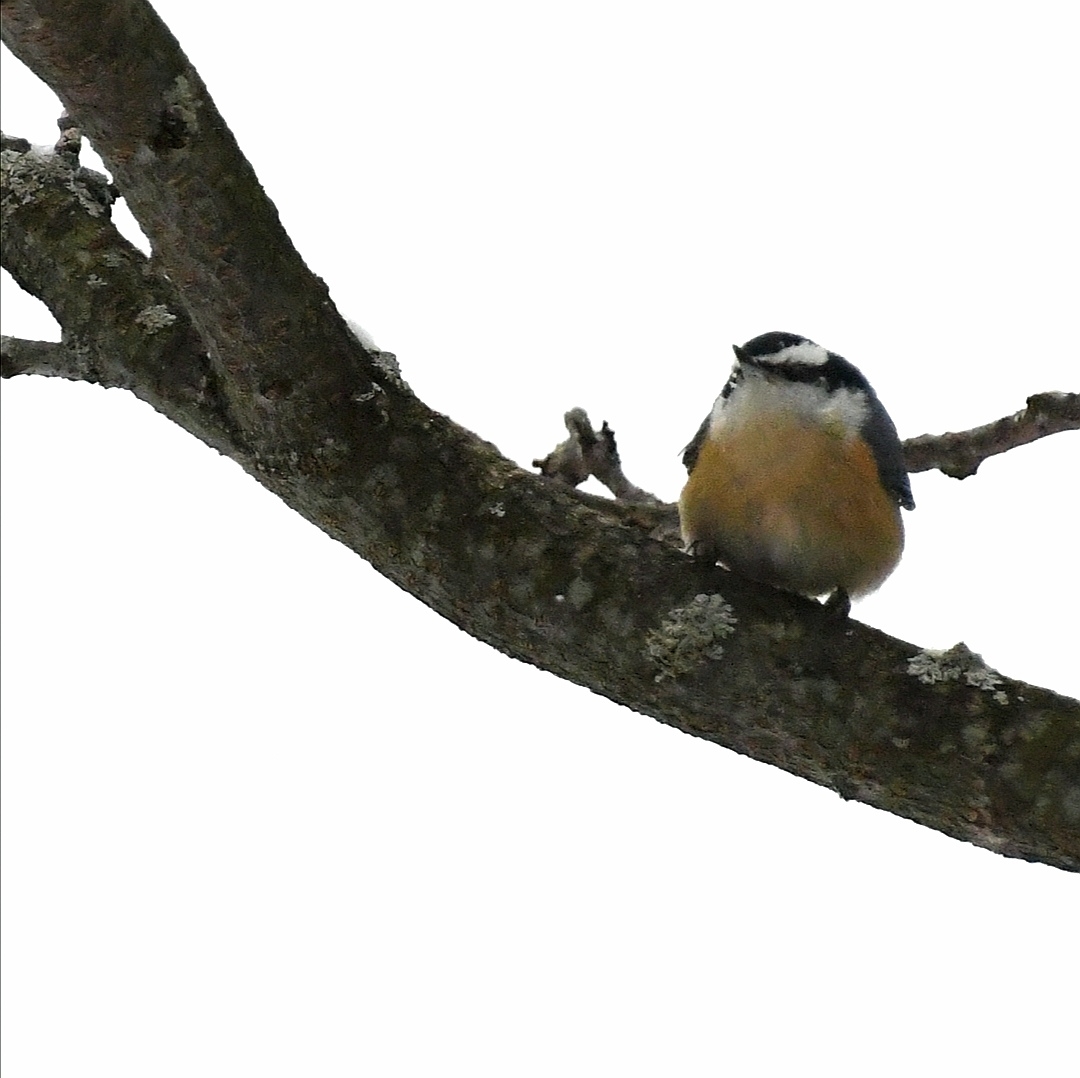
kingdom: Animalia
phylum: Chordata
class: Aves
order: Passeriformes
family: Sittidae
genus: Sitta
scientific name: Sitta canadensis
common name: Red-breasted nuthatch
